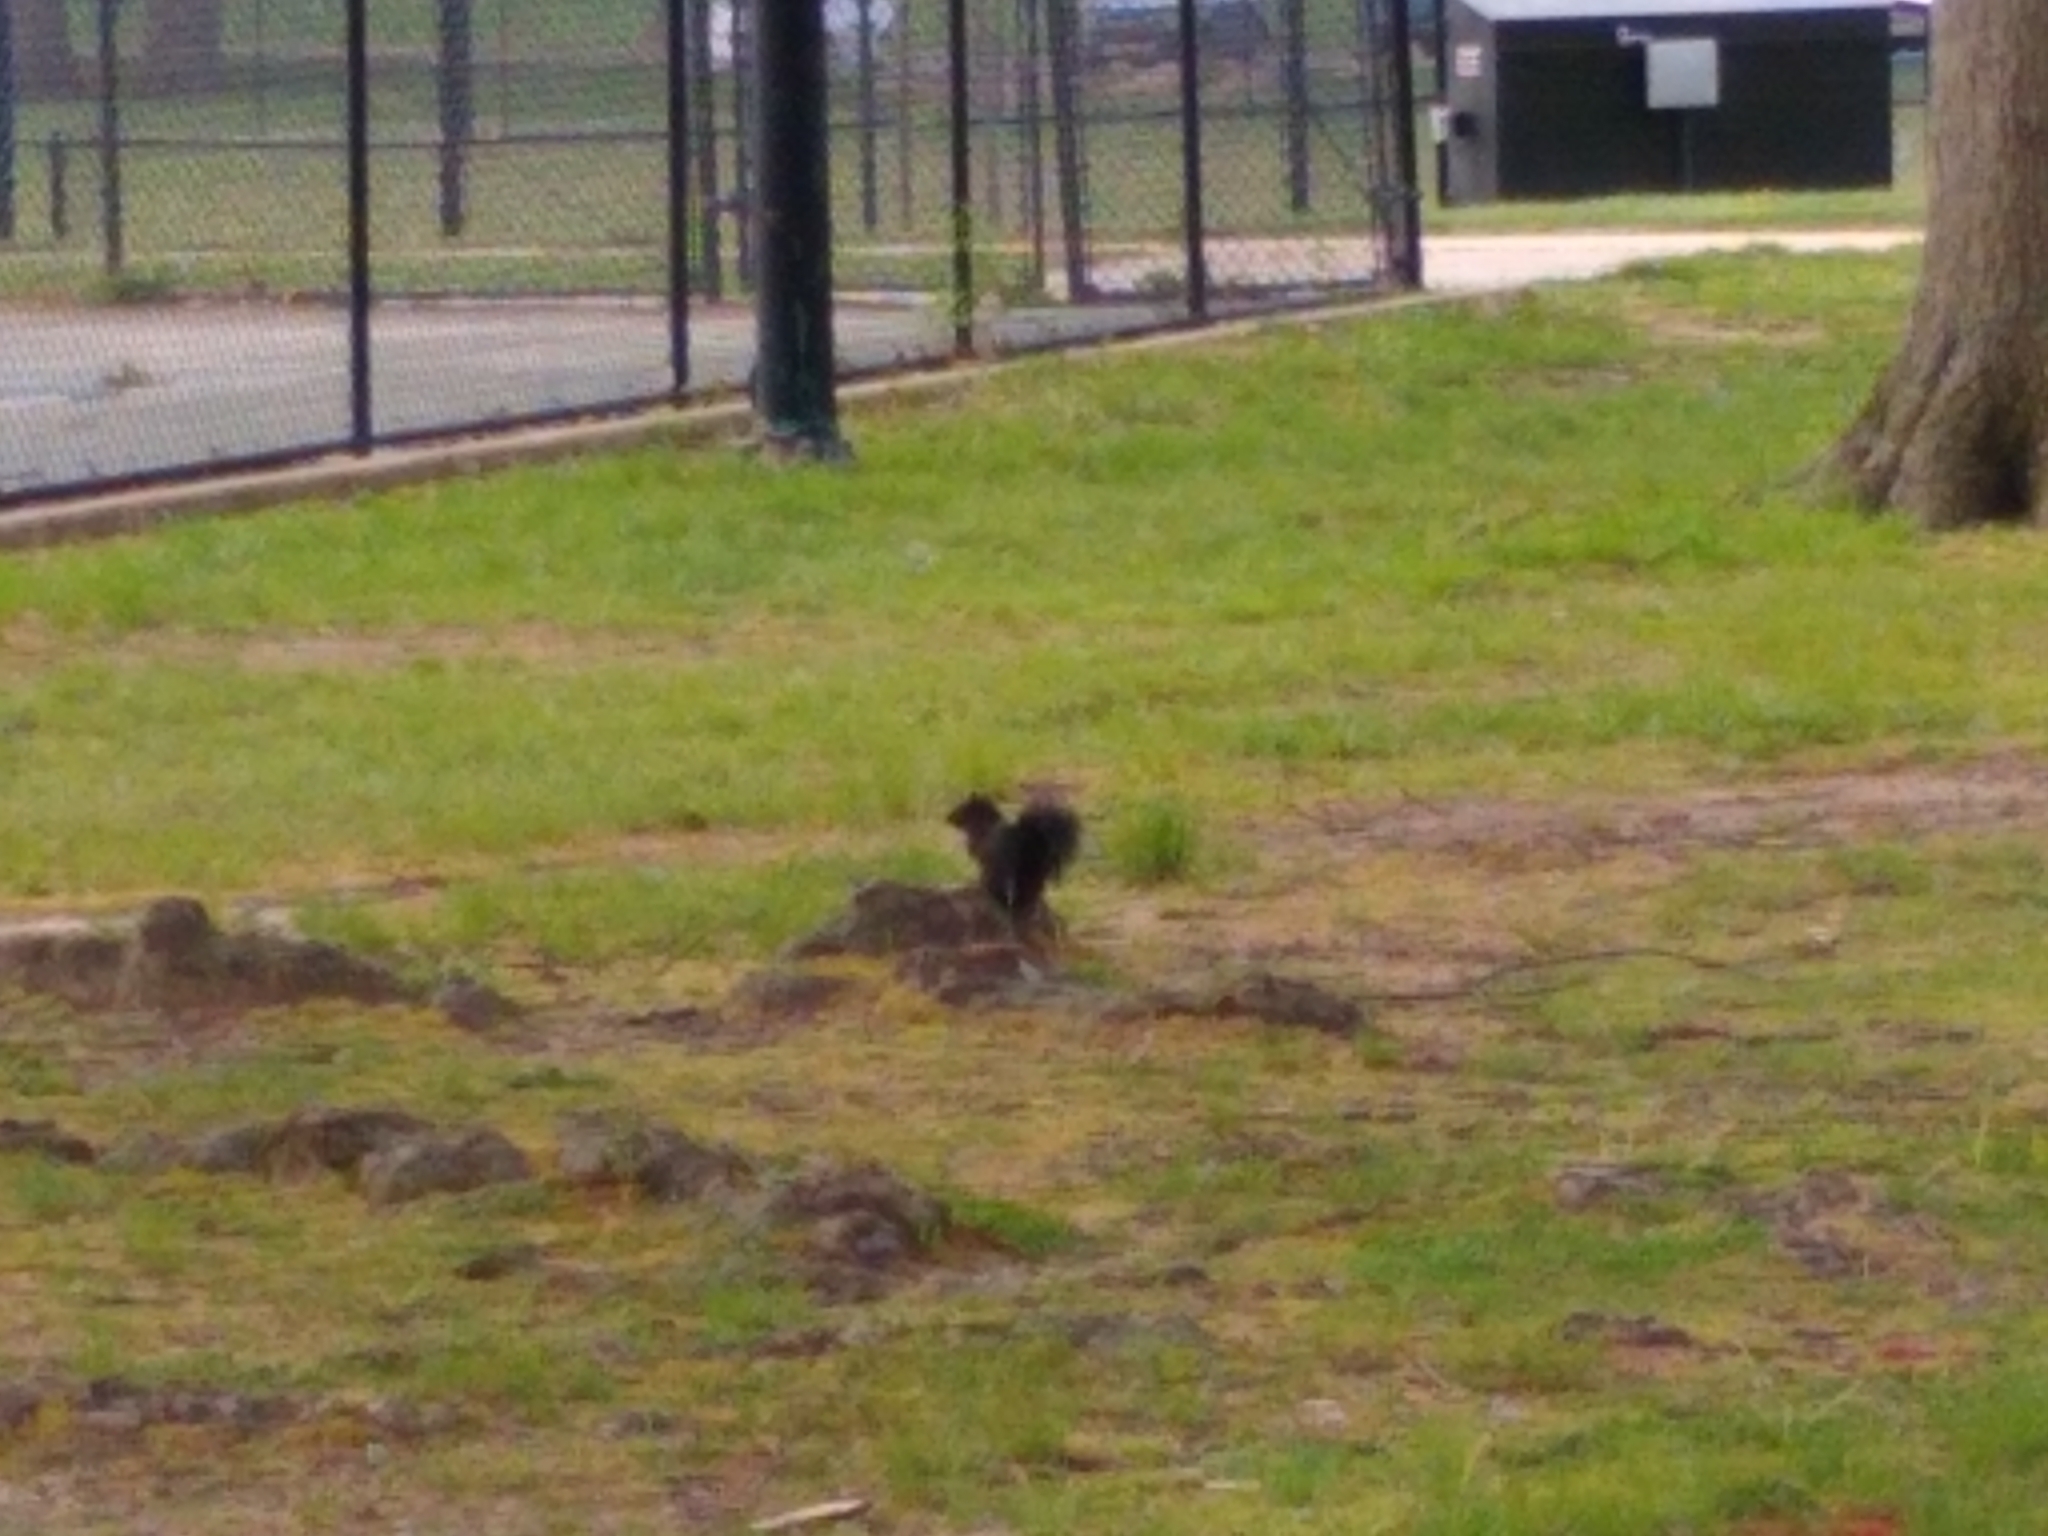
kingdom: Animalia
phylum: Chordata
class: Mammalia
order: Rodentia
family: Sciuridae
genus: Sciurus
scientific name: Sciurus carolinensis
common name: Eastern gray squirrel
